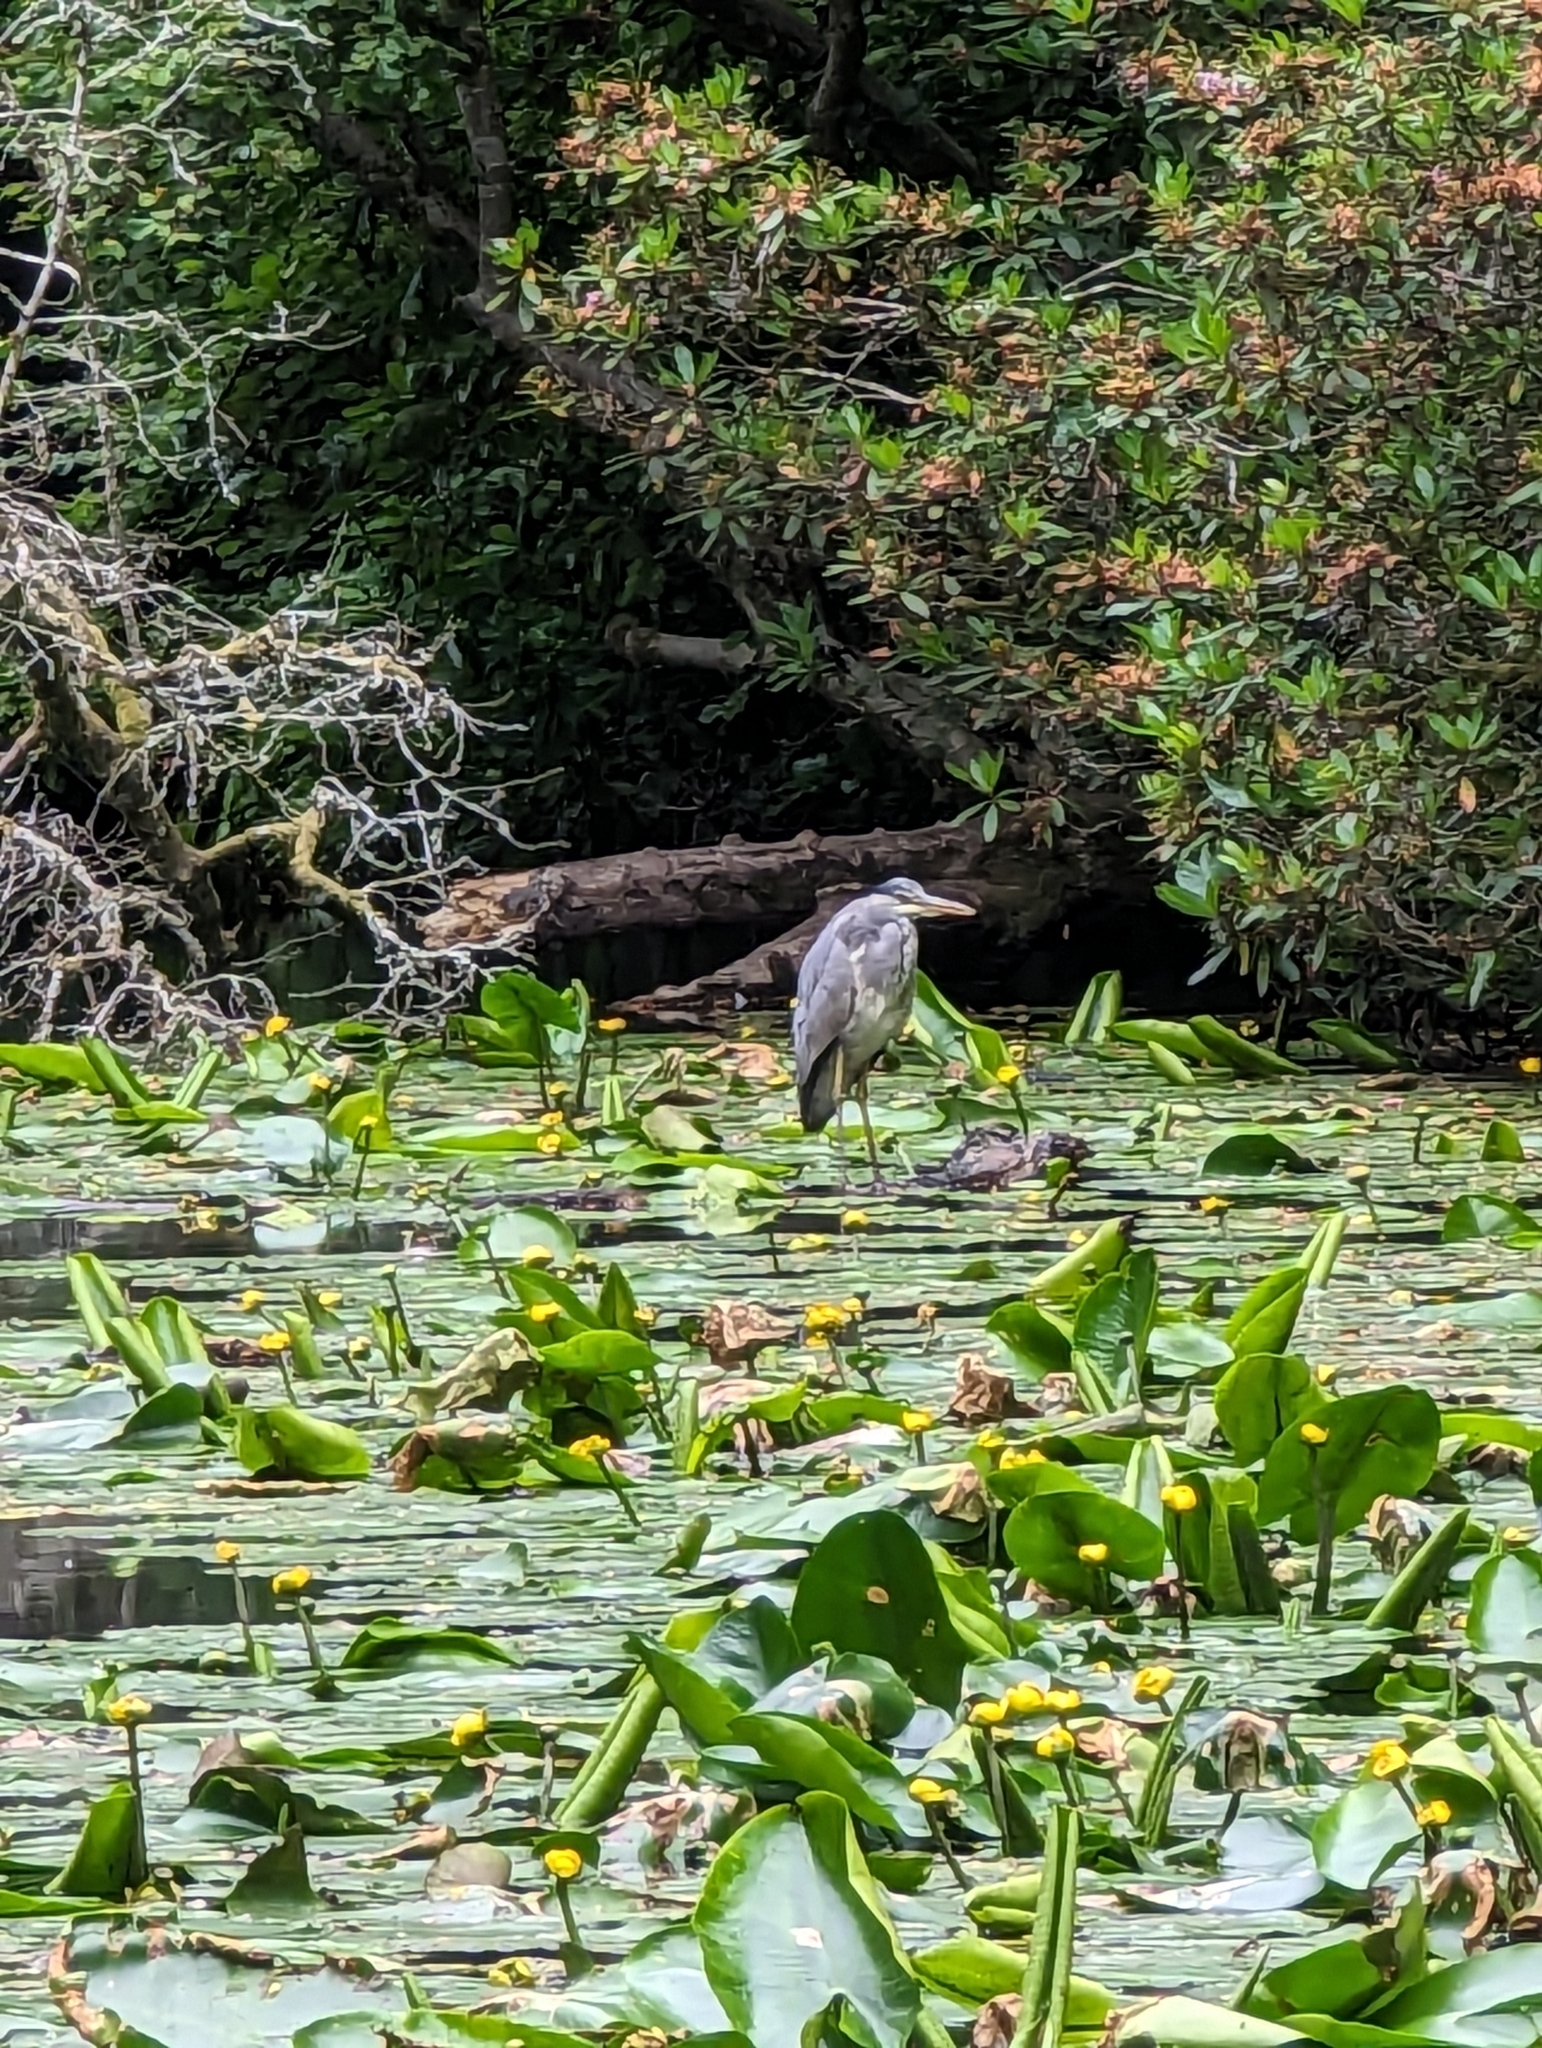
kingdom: Animalia
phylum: Chordata
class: Aves
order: Pelecaniformes
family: Ardeidae
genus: Ardea
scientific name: Ardea cinerea
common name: Grey heron
